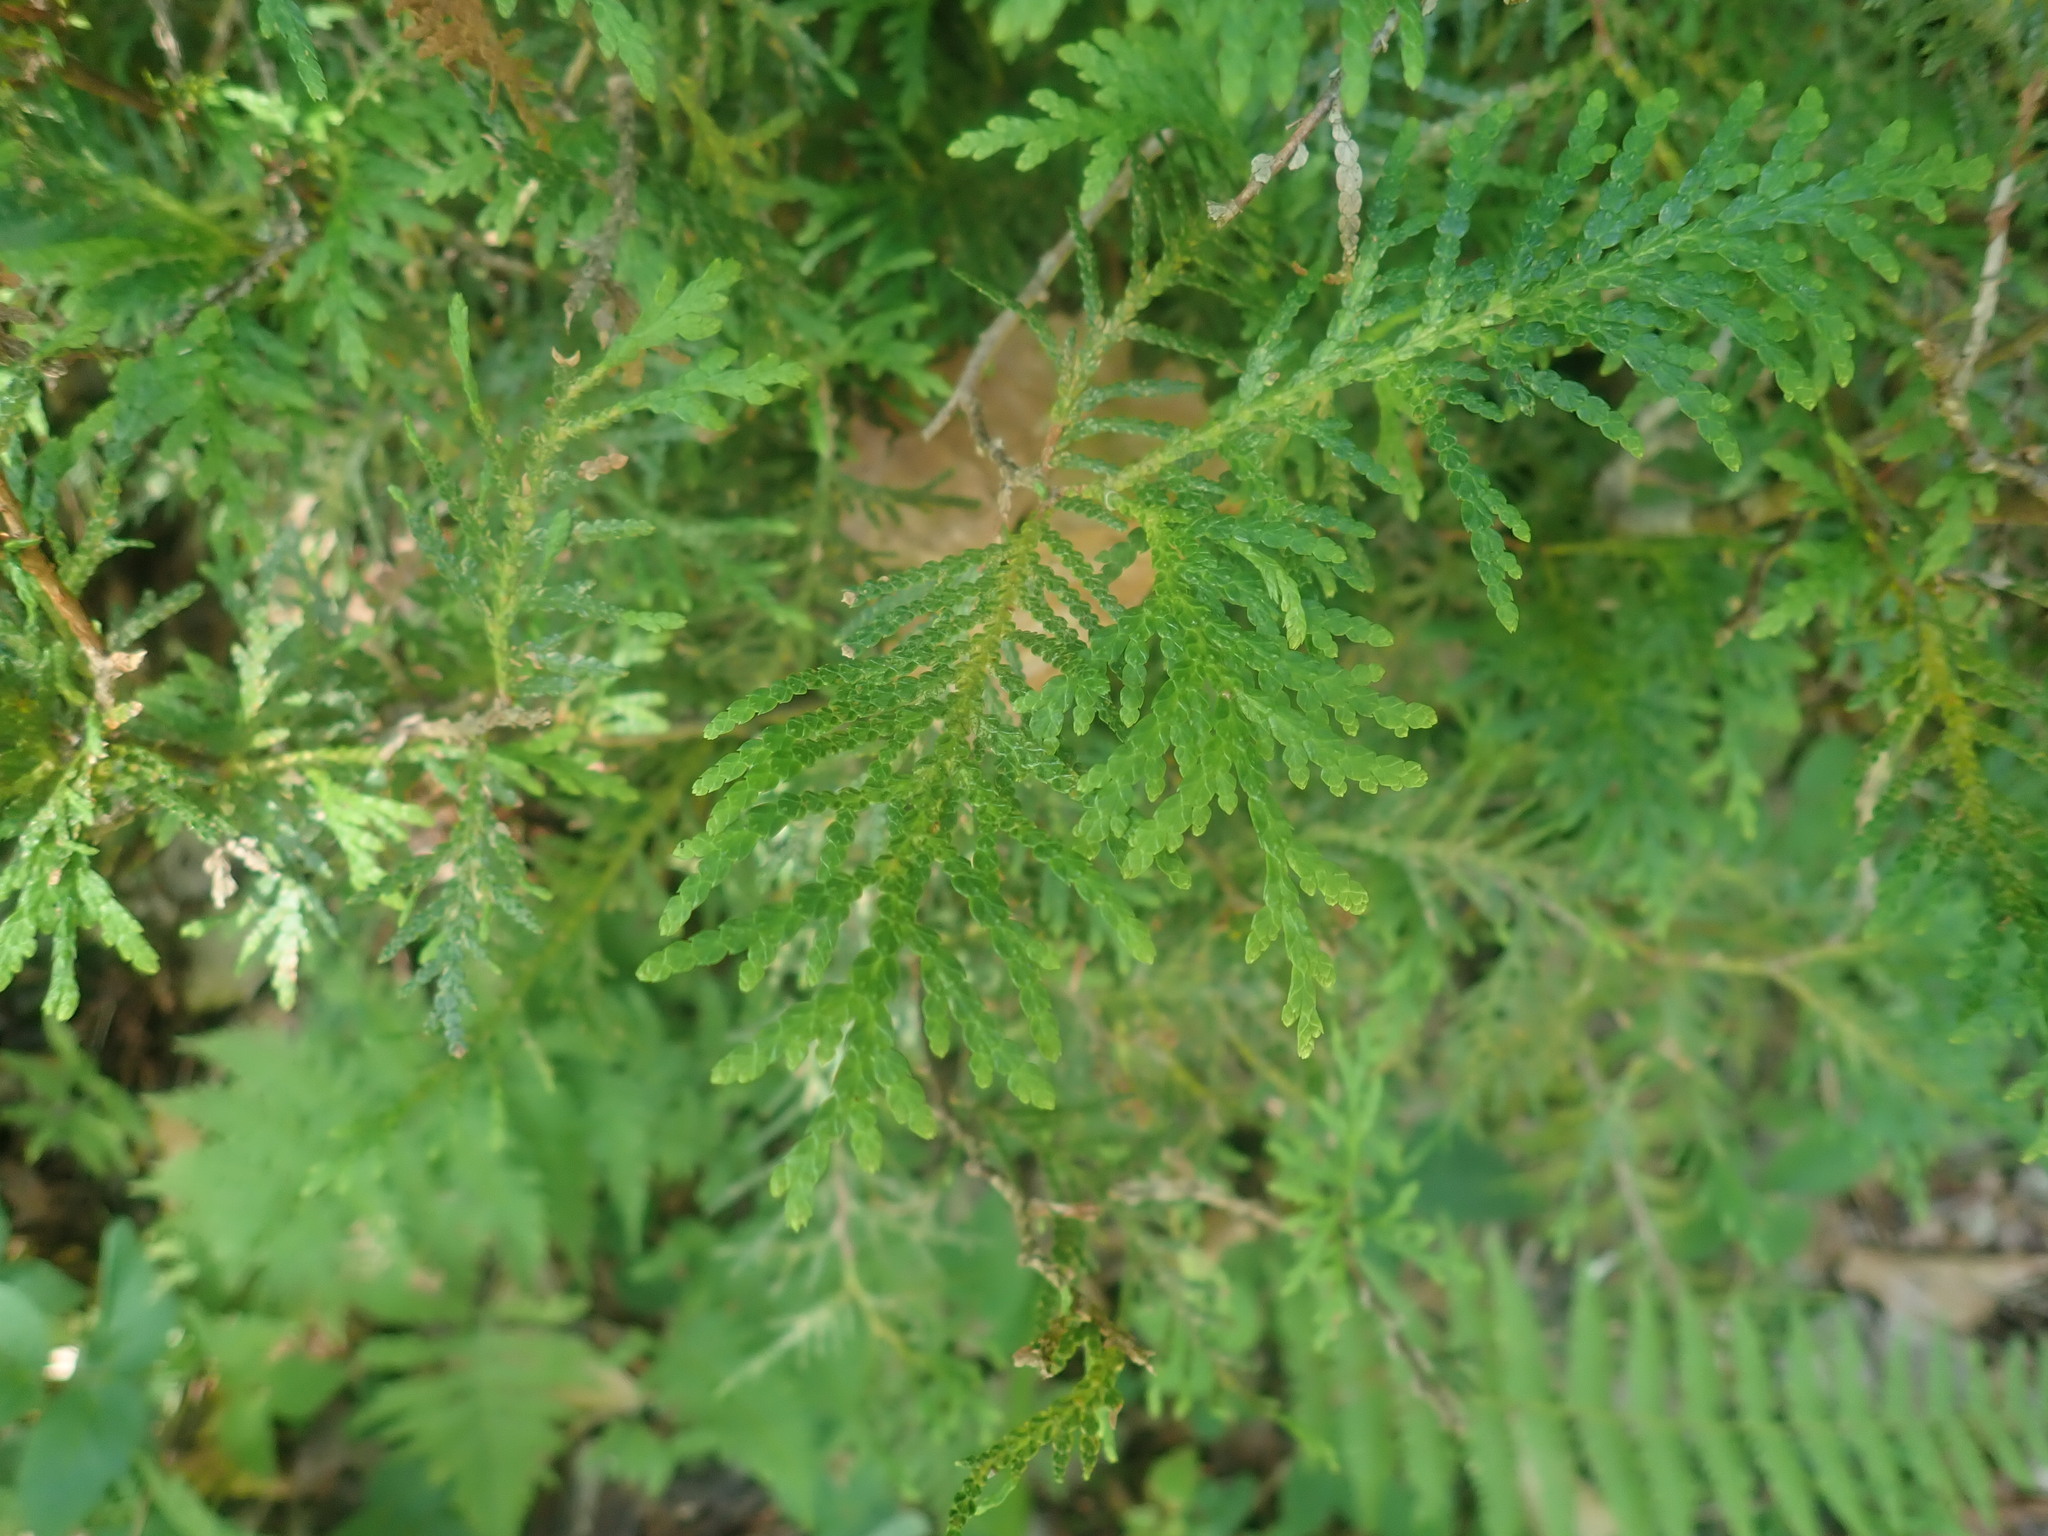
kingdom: Plantae
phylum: Tracheophyta
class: Pinopsida
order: Pinales
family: Cupressaceae
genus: Thuja
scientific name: Thuja occidentalis
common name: Northern white-cedar
